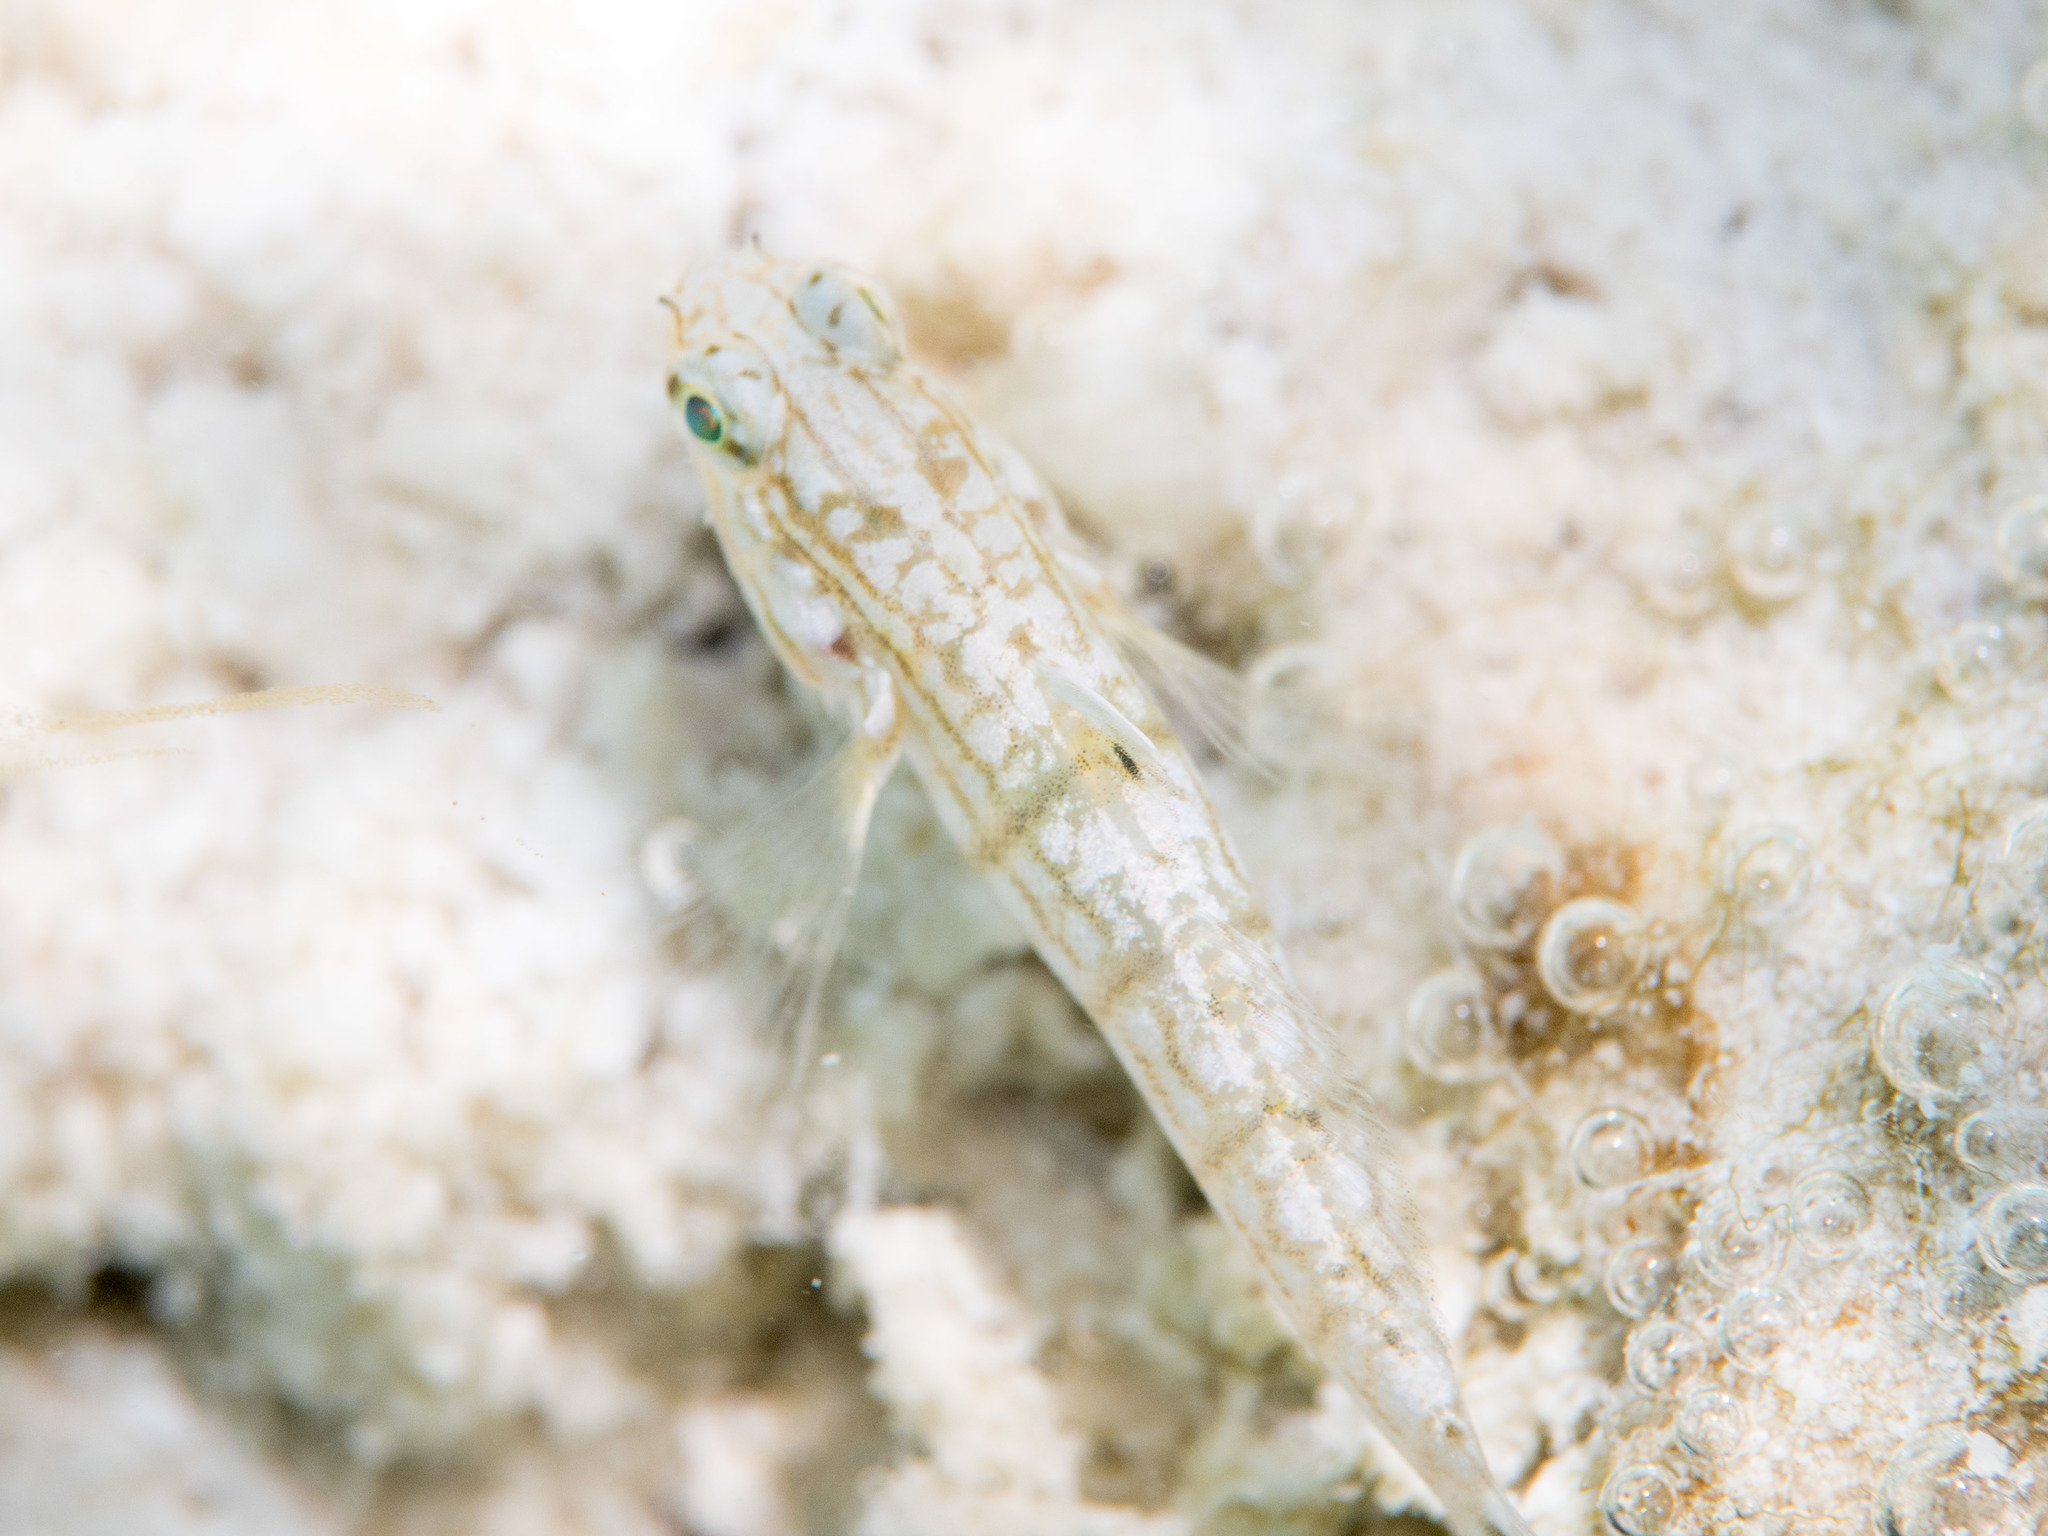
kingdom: Animalia
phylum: Chordata
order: Perciformes
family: Gobiidae
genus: Amblygobius
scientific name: Amblygobius semicinctus
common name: Halfbarred goby
